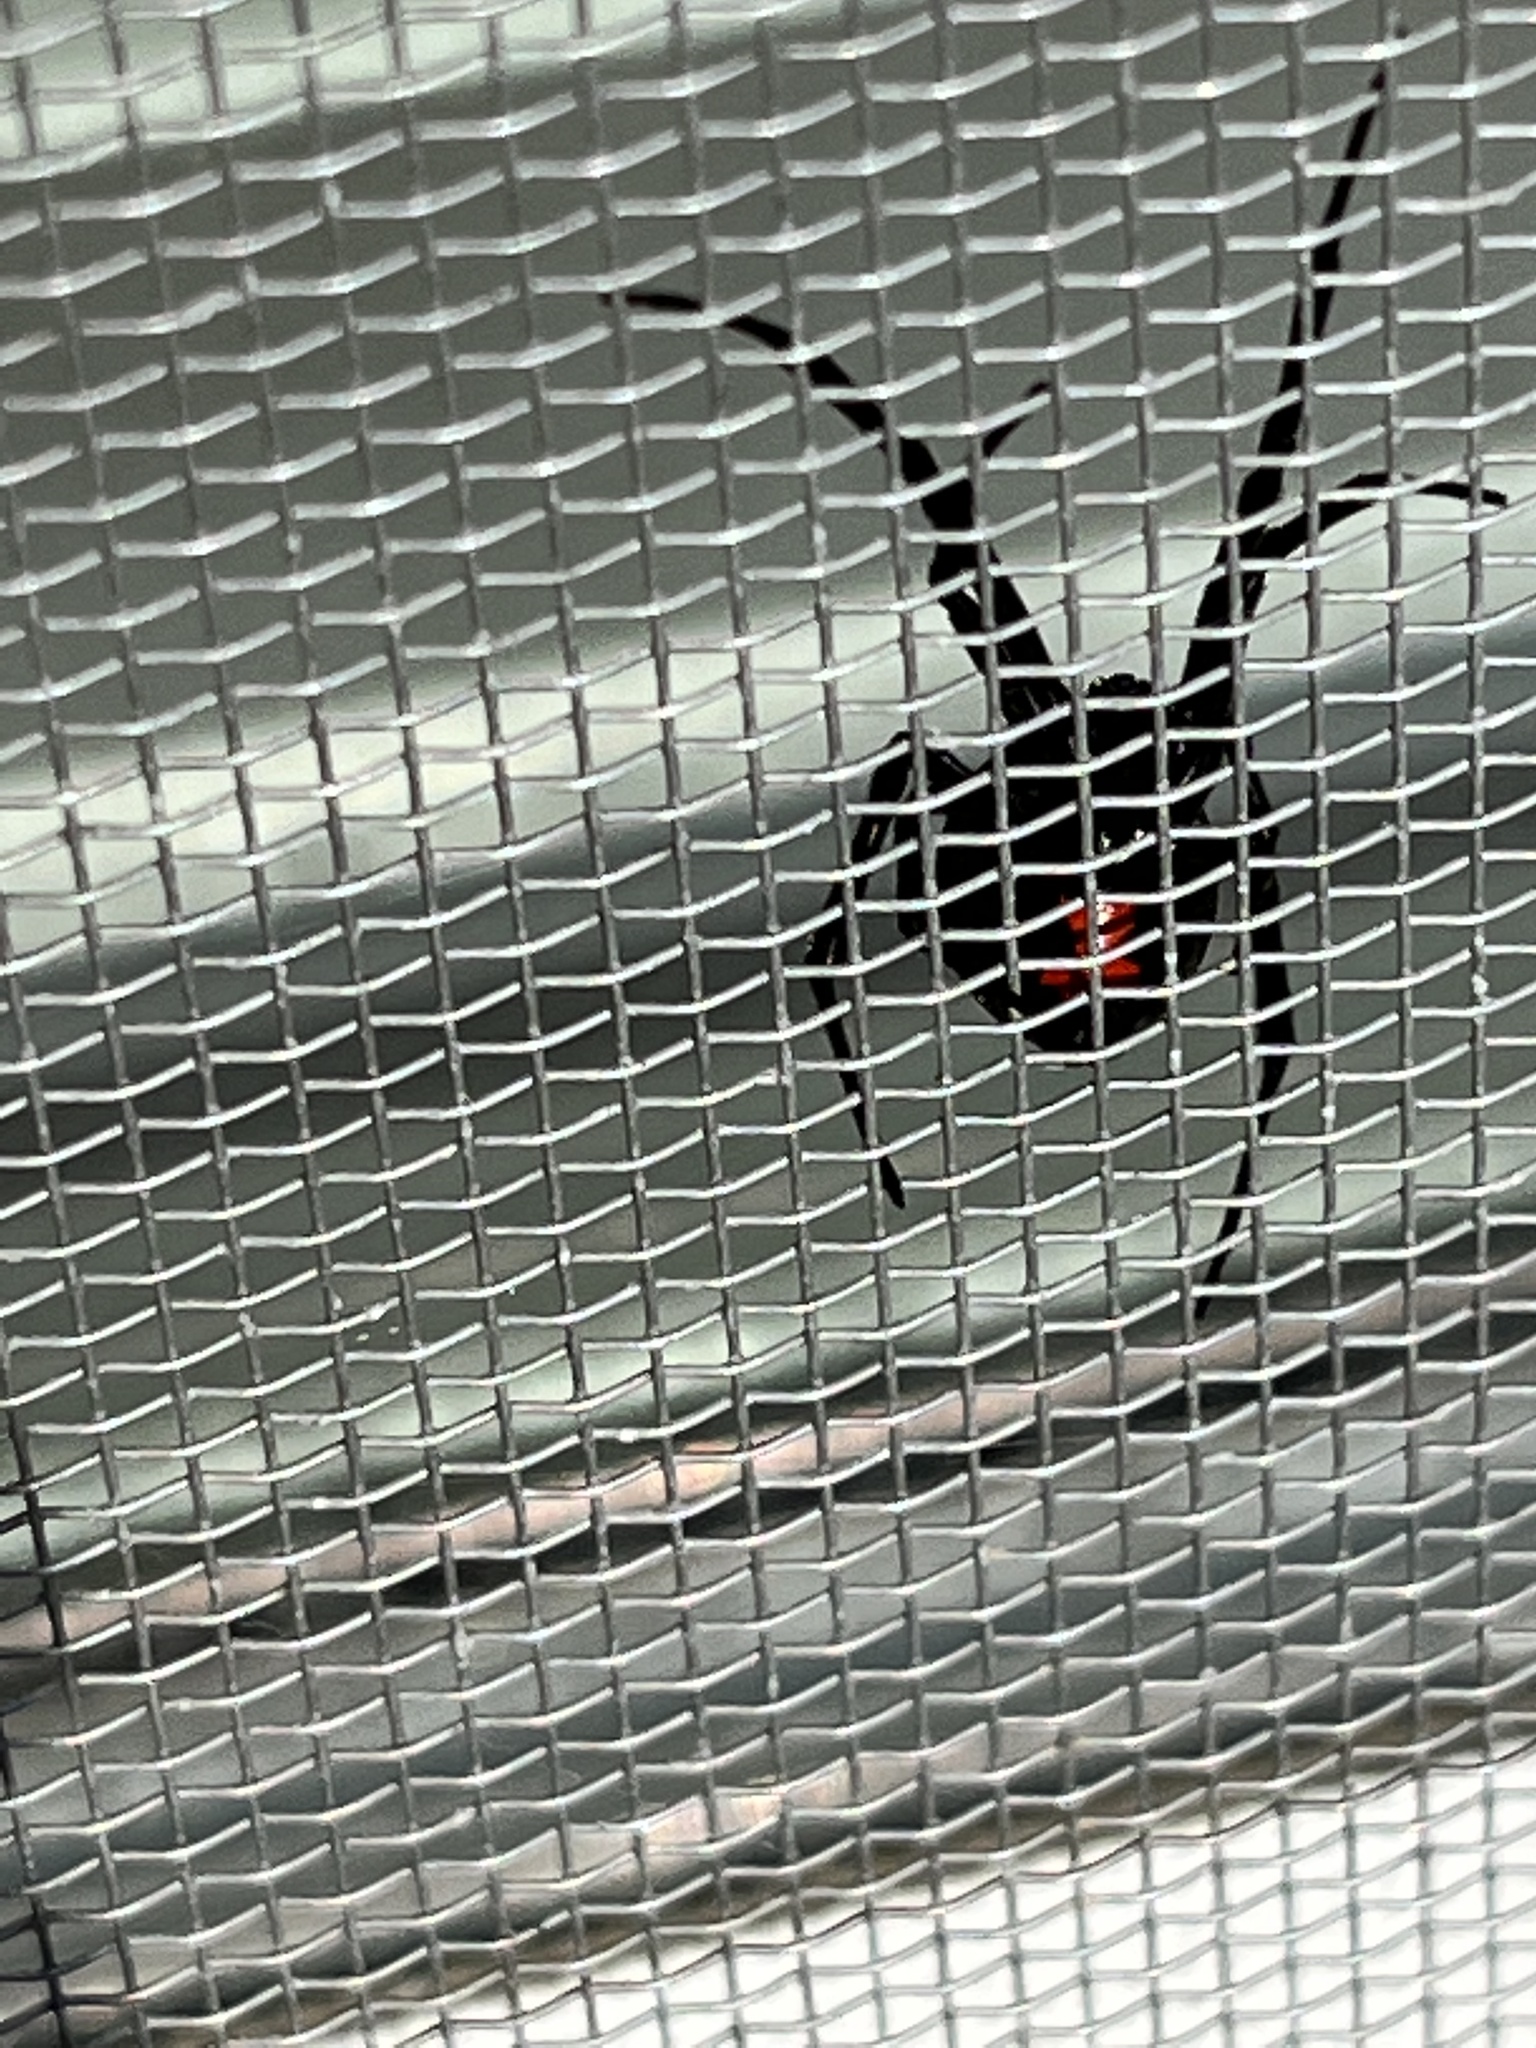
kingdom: Animalia
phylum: Arthropoda
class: Arachnida
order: Araneae
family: Theridiidae
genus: Latrodectus
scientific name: Latrodectus mactans
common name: Cobweb spiders
